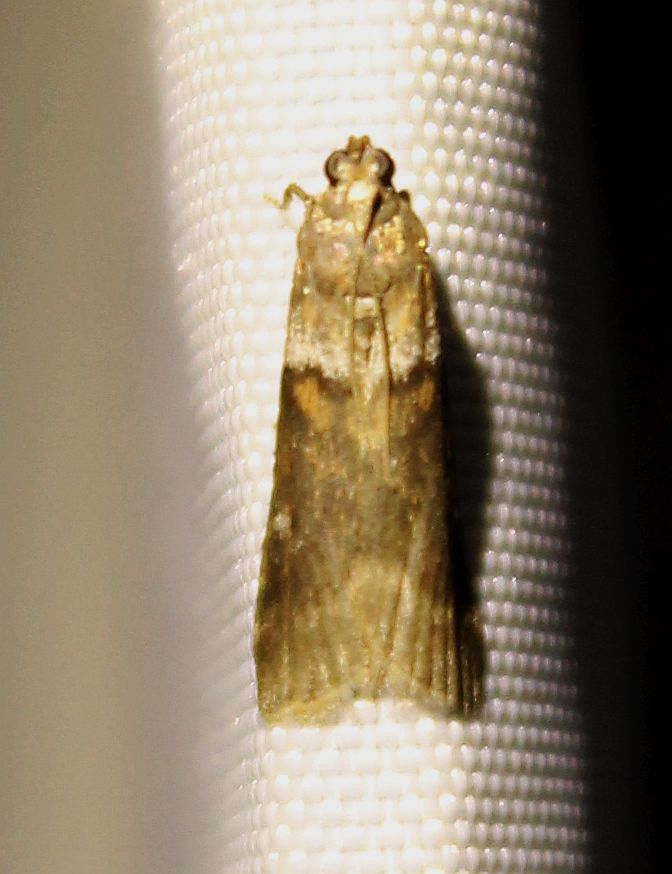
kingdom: Animalia
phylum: Arthropoda
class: Insecta
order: Lepidoptera
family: Pyralidae
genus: Acrobasis
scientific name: Acrobasis consociella
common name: Broad-barred knot-horn
